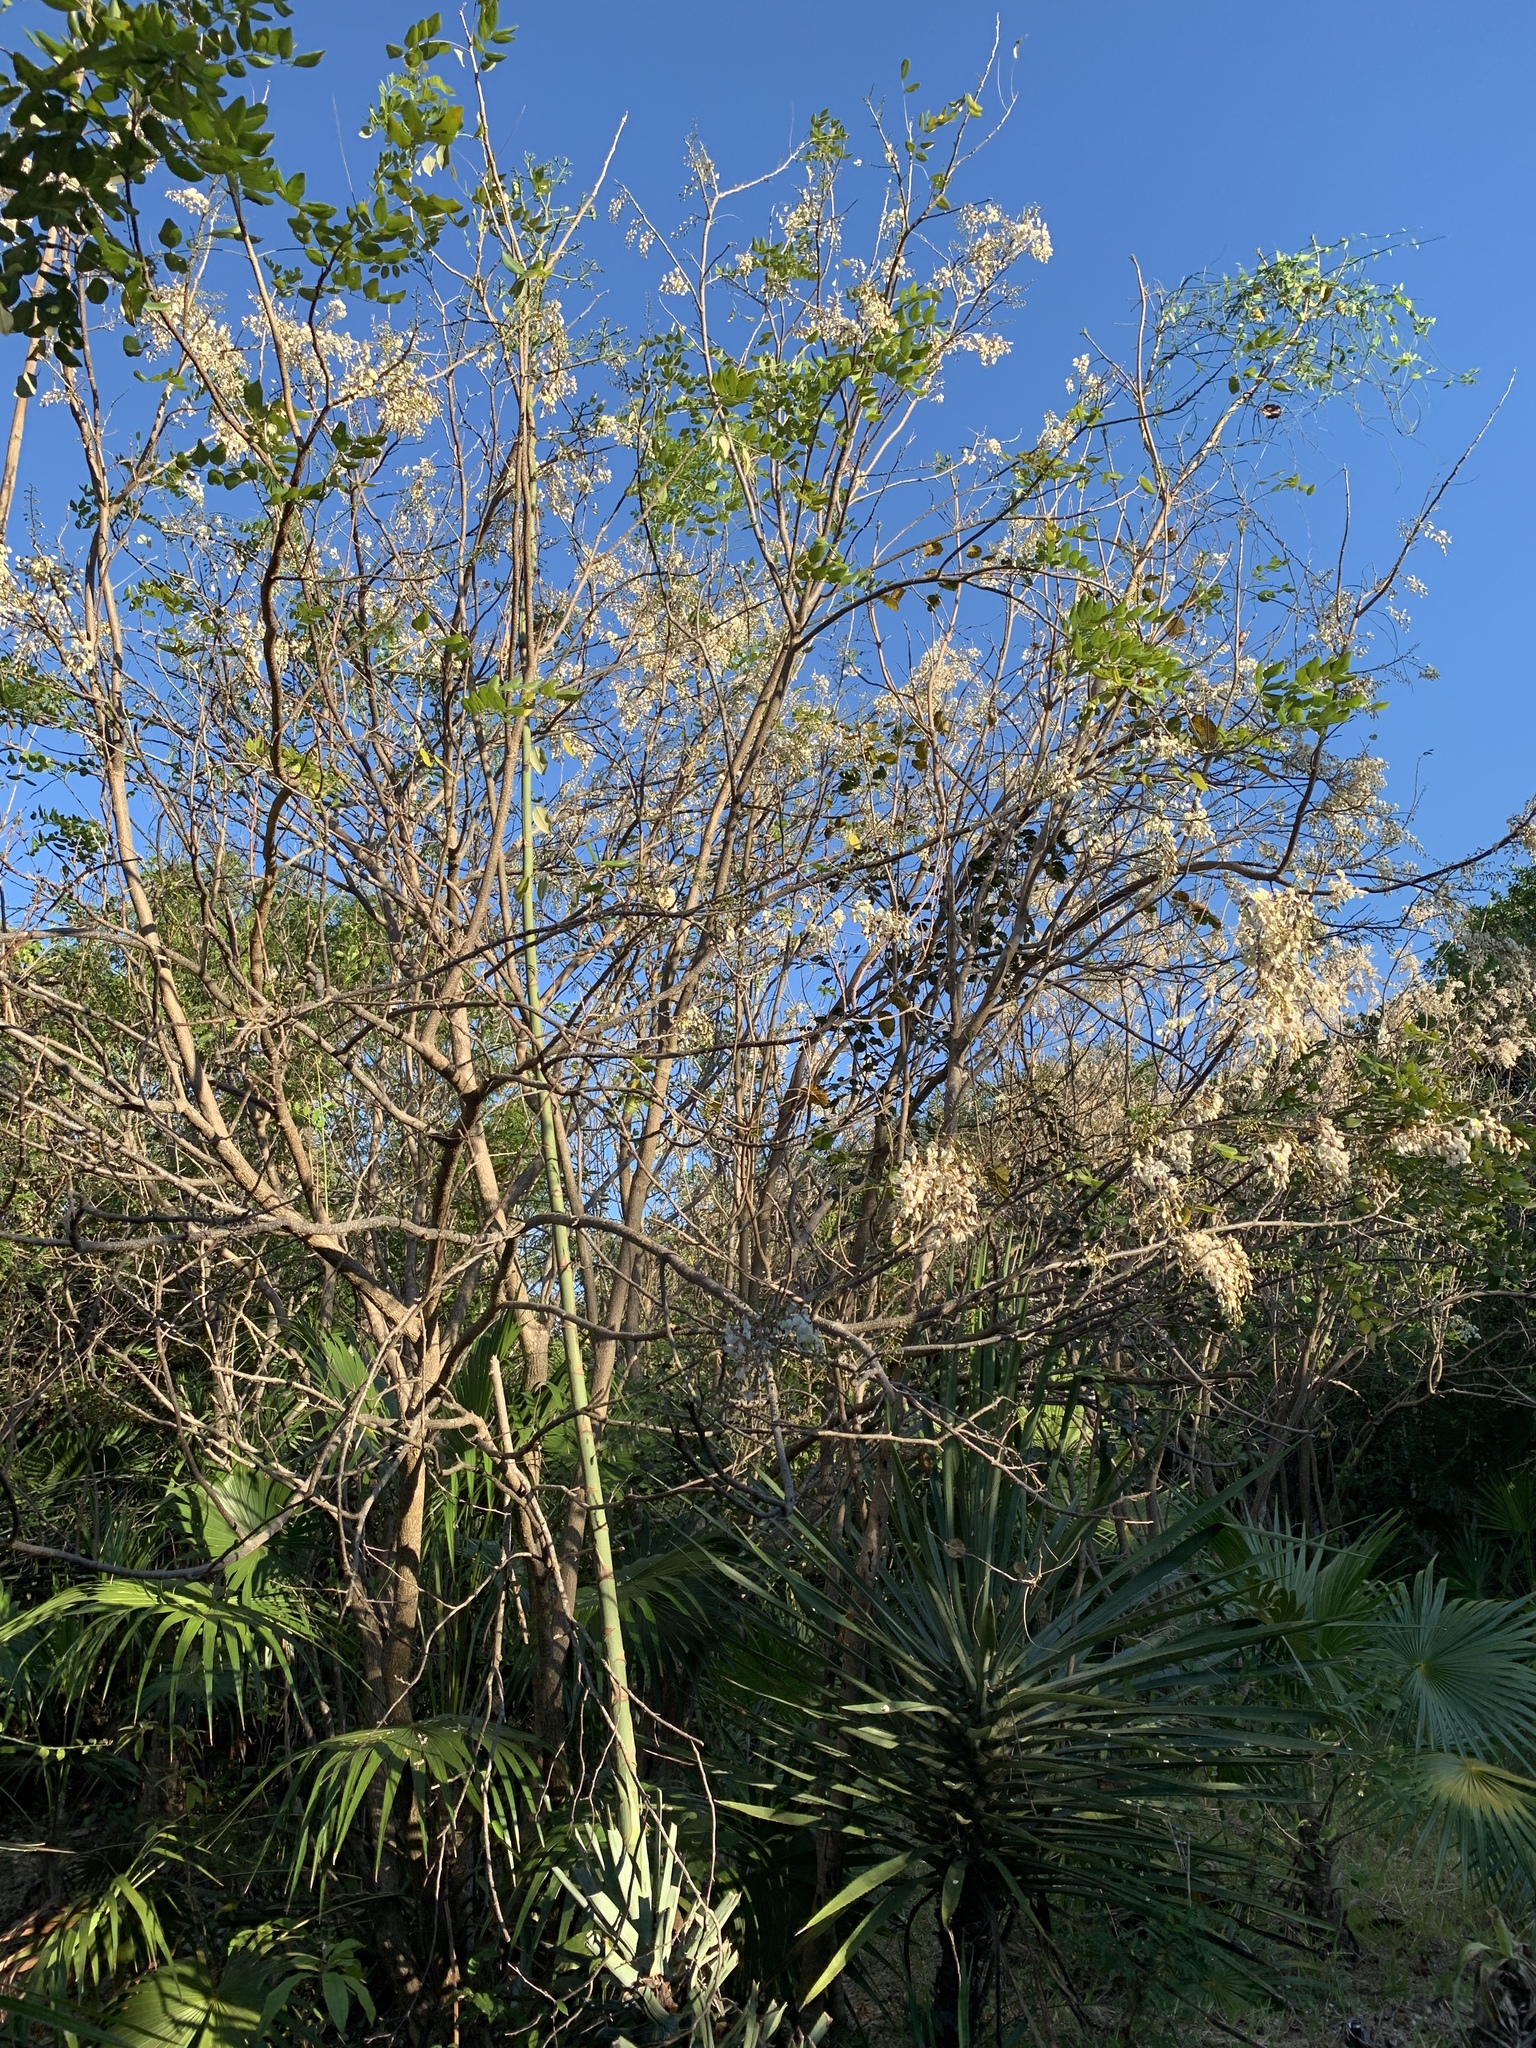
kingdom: Plantae
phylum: Tracheophyta
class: Magnoliopsida
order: Fabales
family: Fabaceae
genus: Gliricidia
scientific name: Gliricidia maculata
